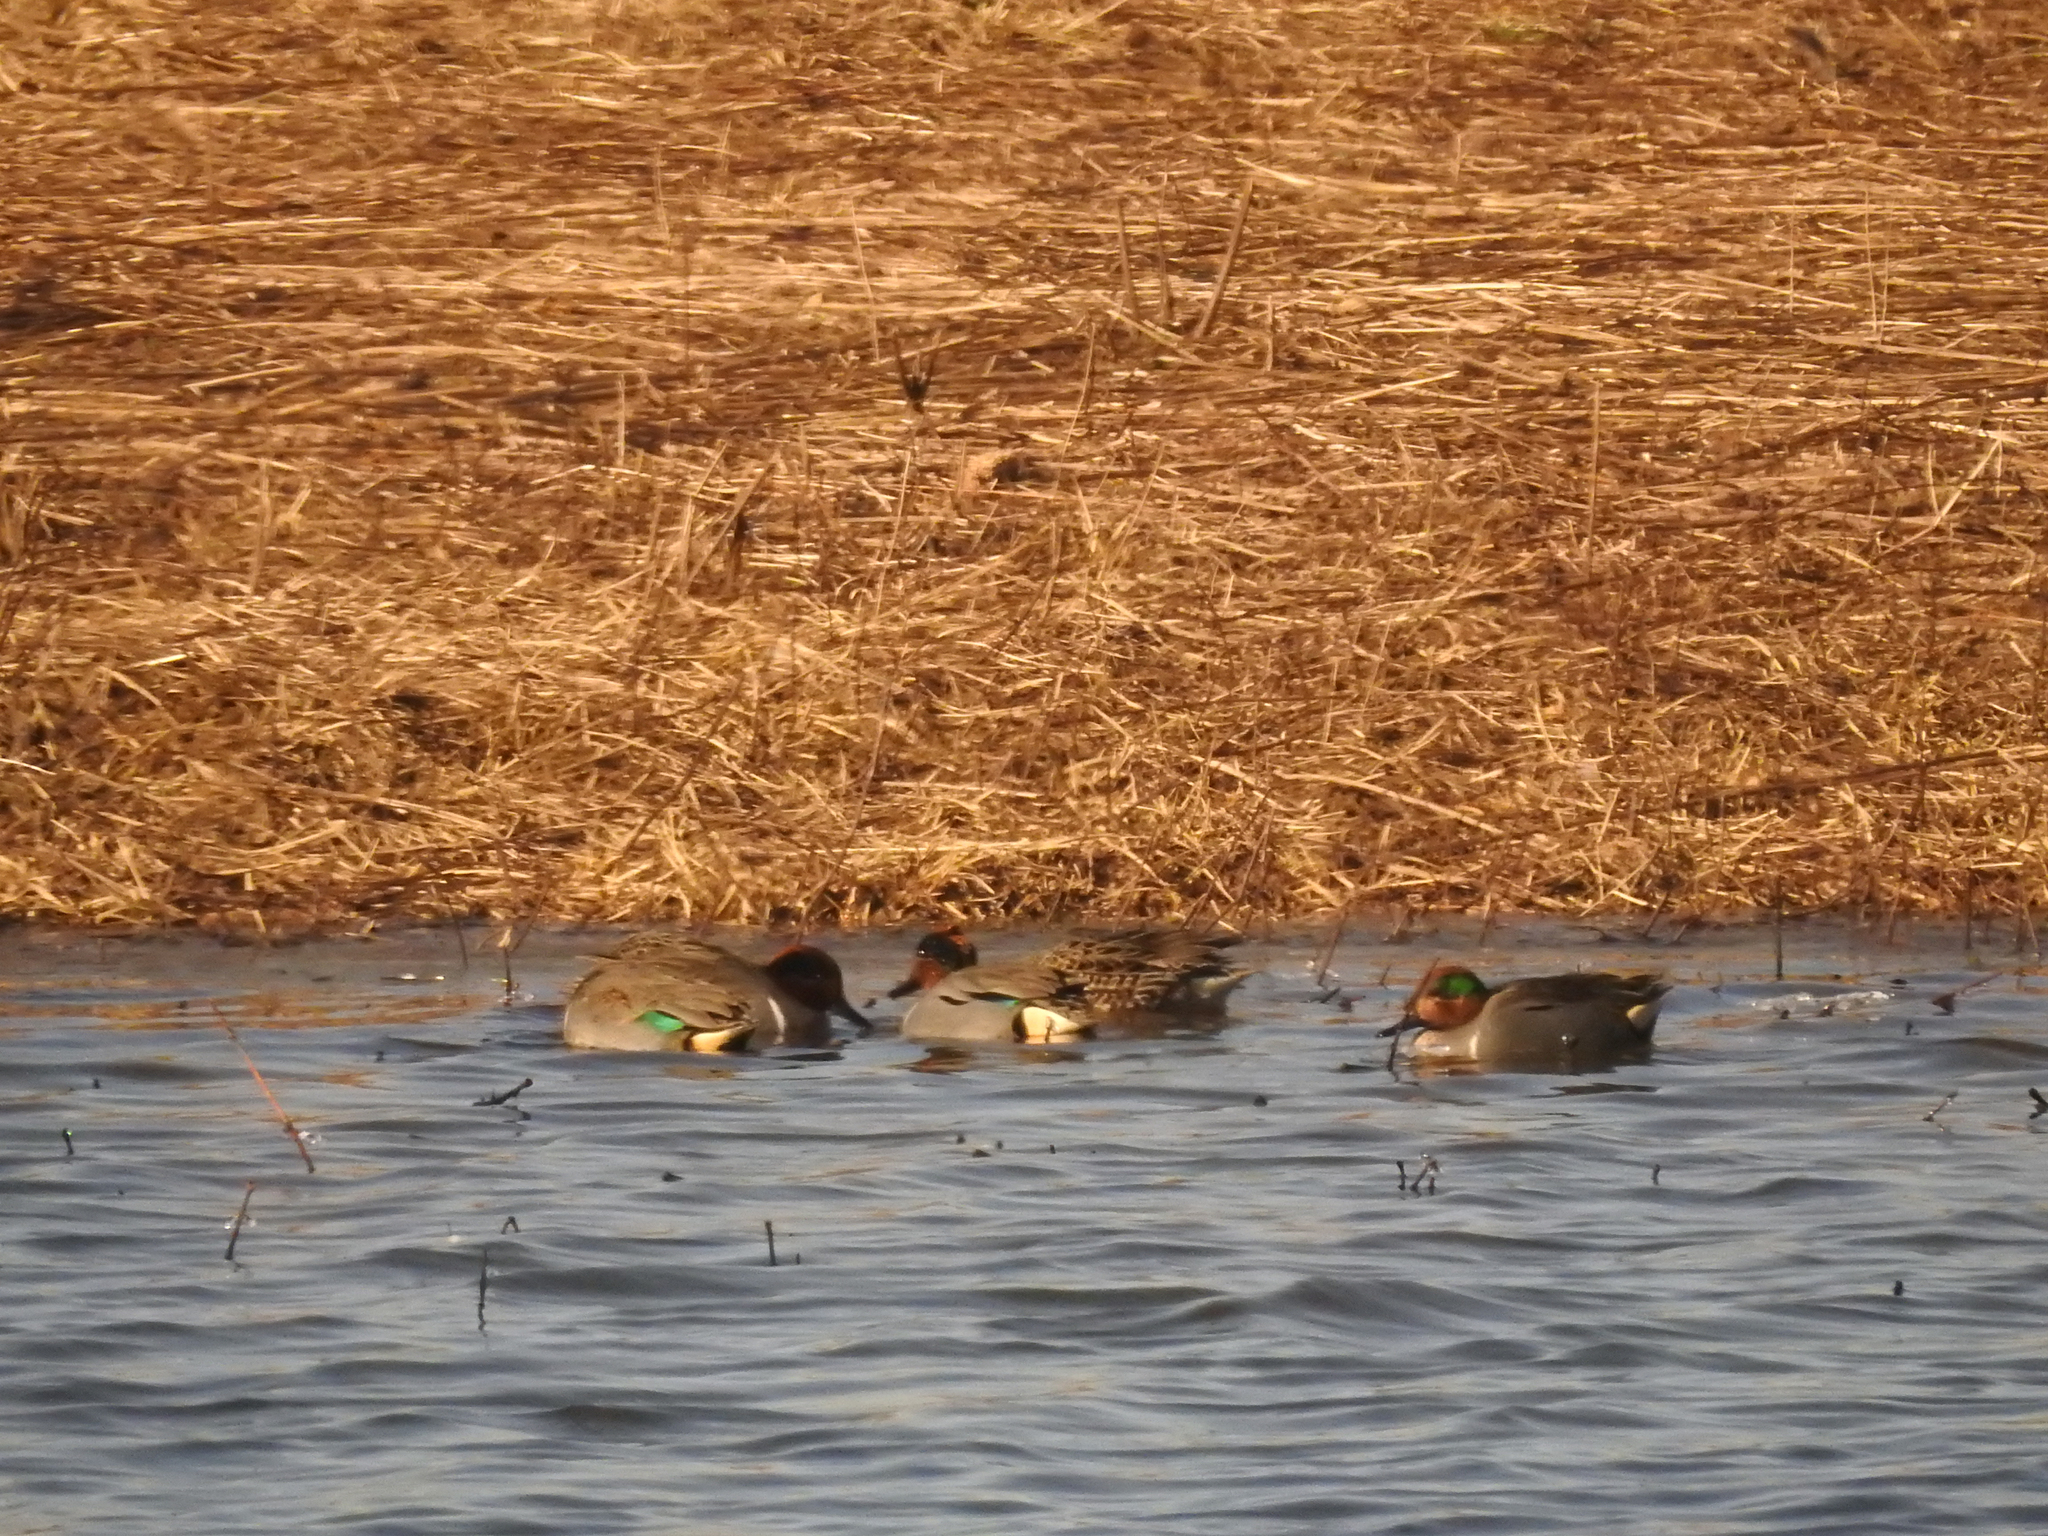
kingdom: Animalia
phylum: Chordata
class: Aves
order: Anseriformes
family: Anatidae
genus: Anas
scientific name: Anas crecca
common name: Eurasian teal
